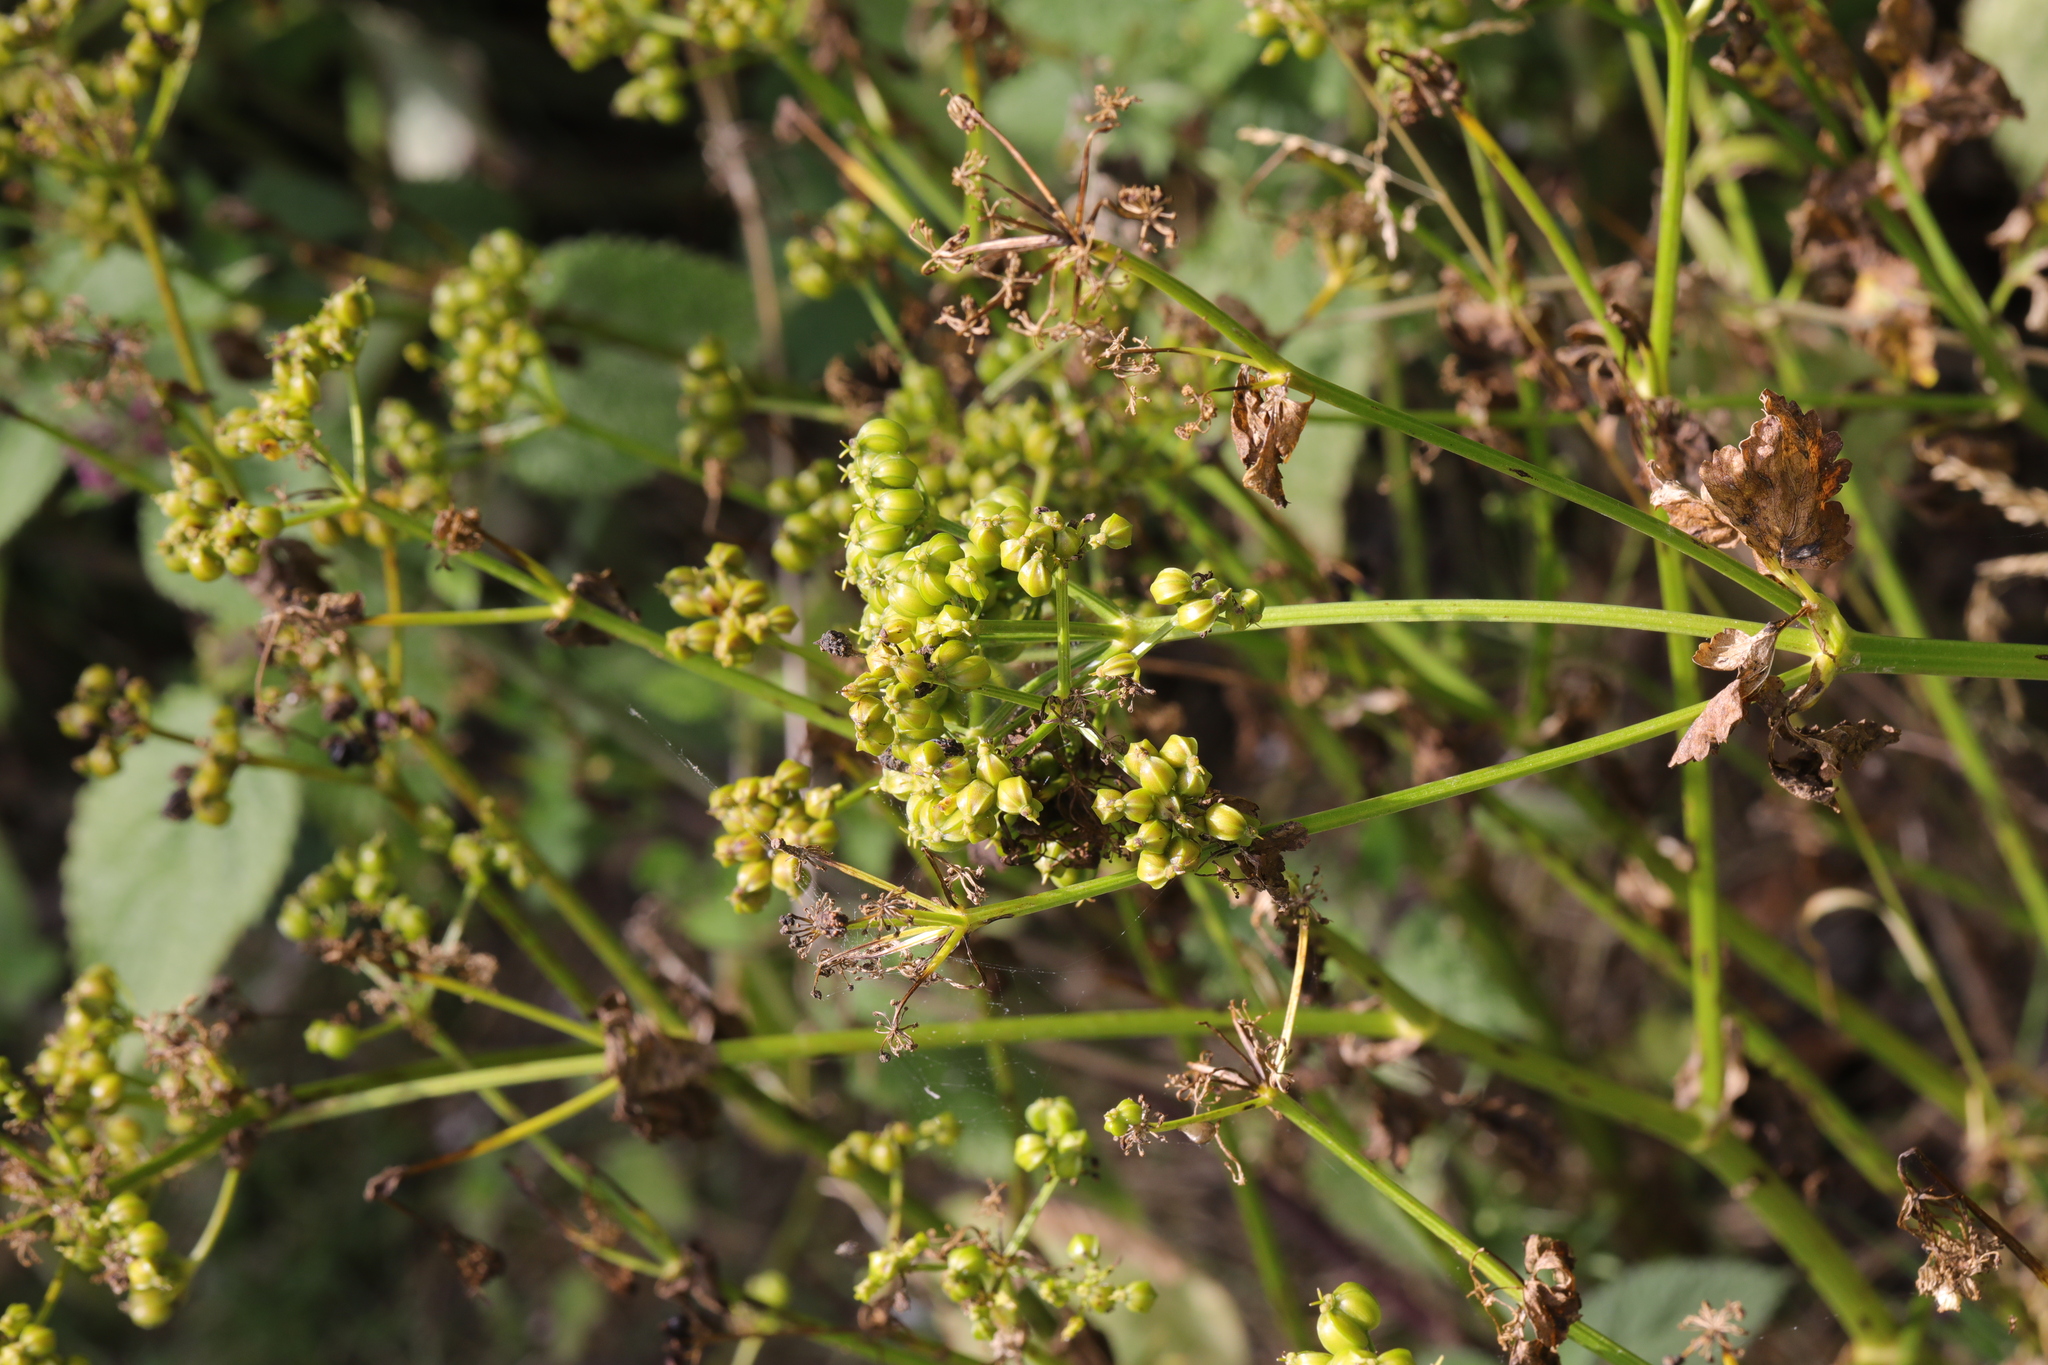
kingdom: Plantae
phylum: Tracheophyta
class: Magnoliopsida
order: Apiales
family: Apiaceae
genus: Smyrnium
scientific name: Smyrnium olusatrum
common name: Alexanders
